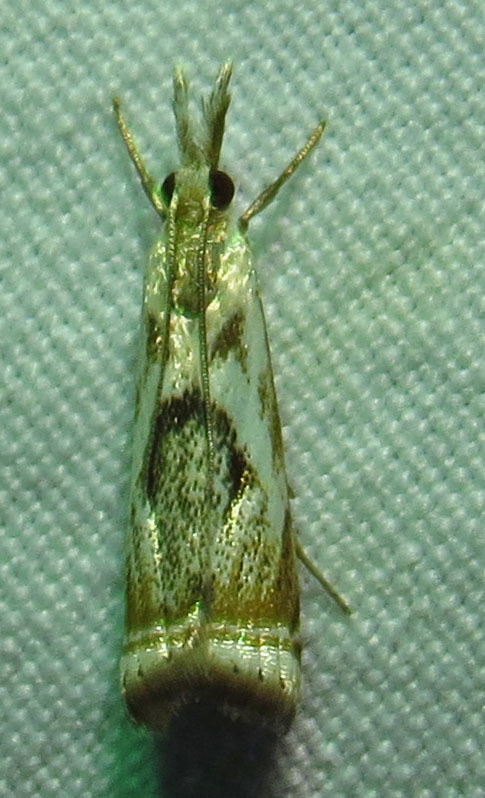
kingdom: Animalia
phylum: Arthropoda
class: Insecta
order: Lepidoptera
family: Crambidae
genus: Microcrambus
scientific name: Microcrambus elegans
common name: Elegant grass-veneer
